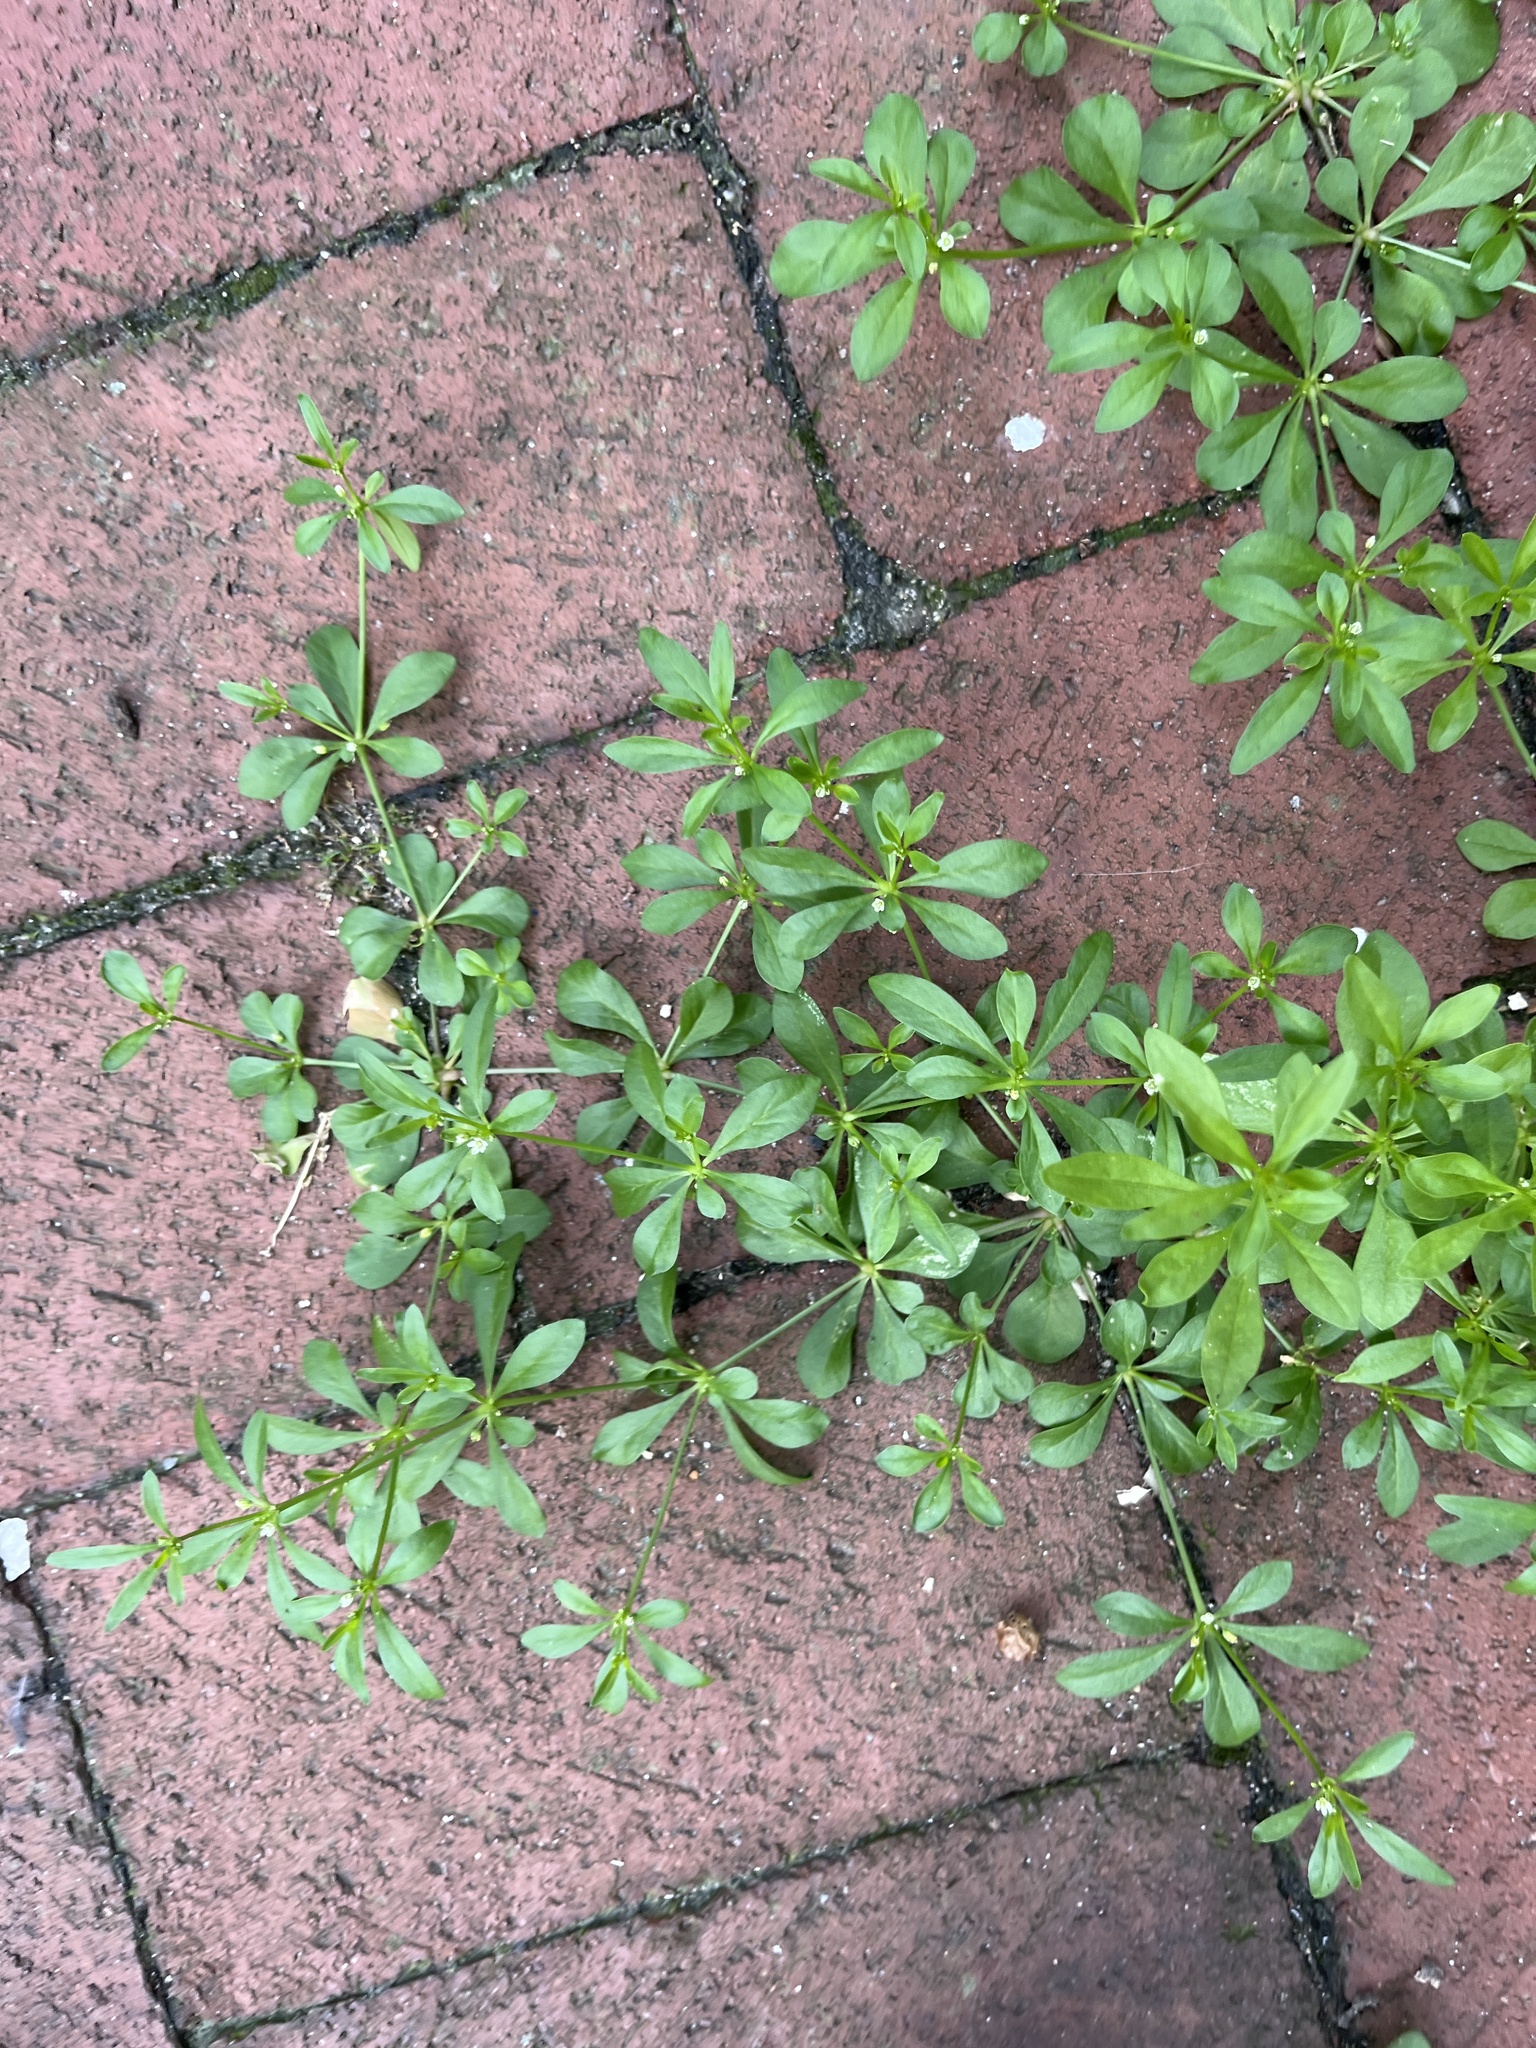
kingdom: Plantae
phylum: Tracheophyta
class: Magnoliopsida
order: Caryophyllales
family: Molluginaceae
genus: Mollugo
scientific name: Mollugo verticillata
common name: Green carpetweed
